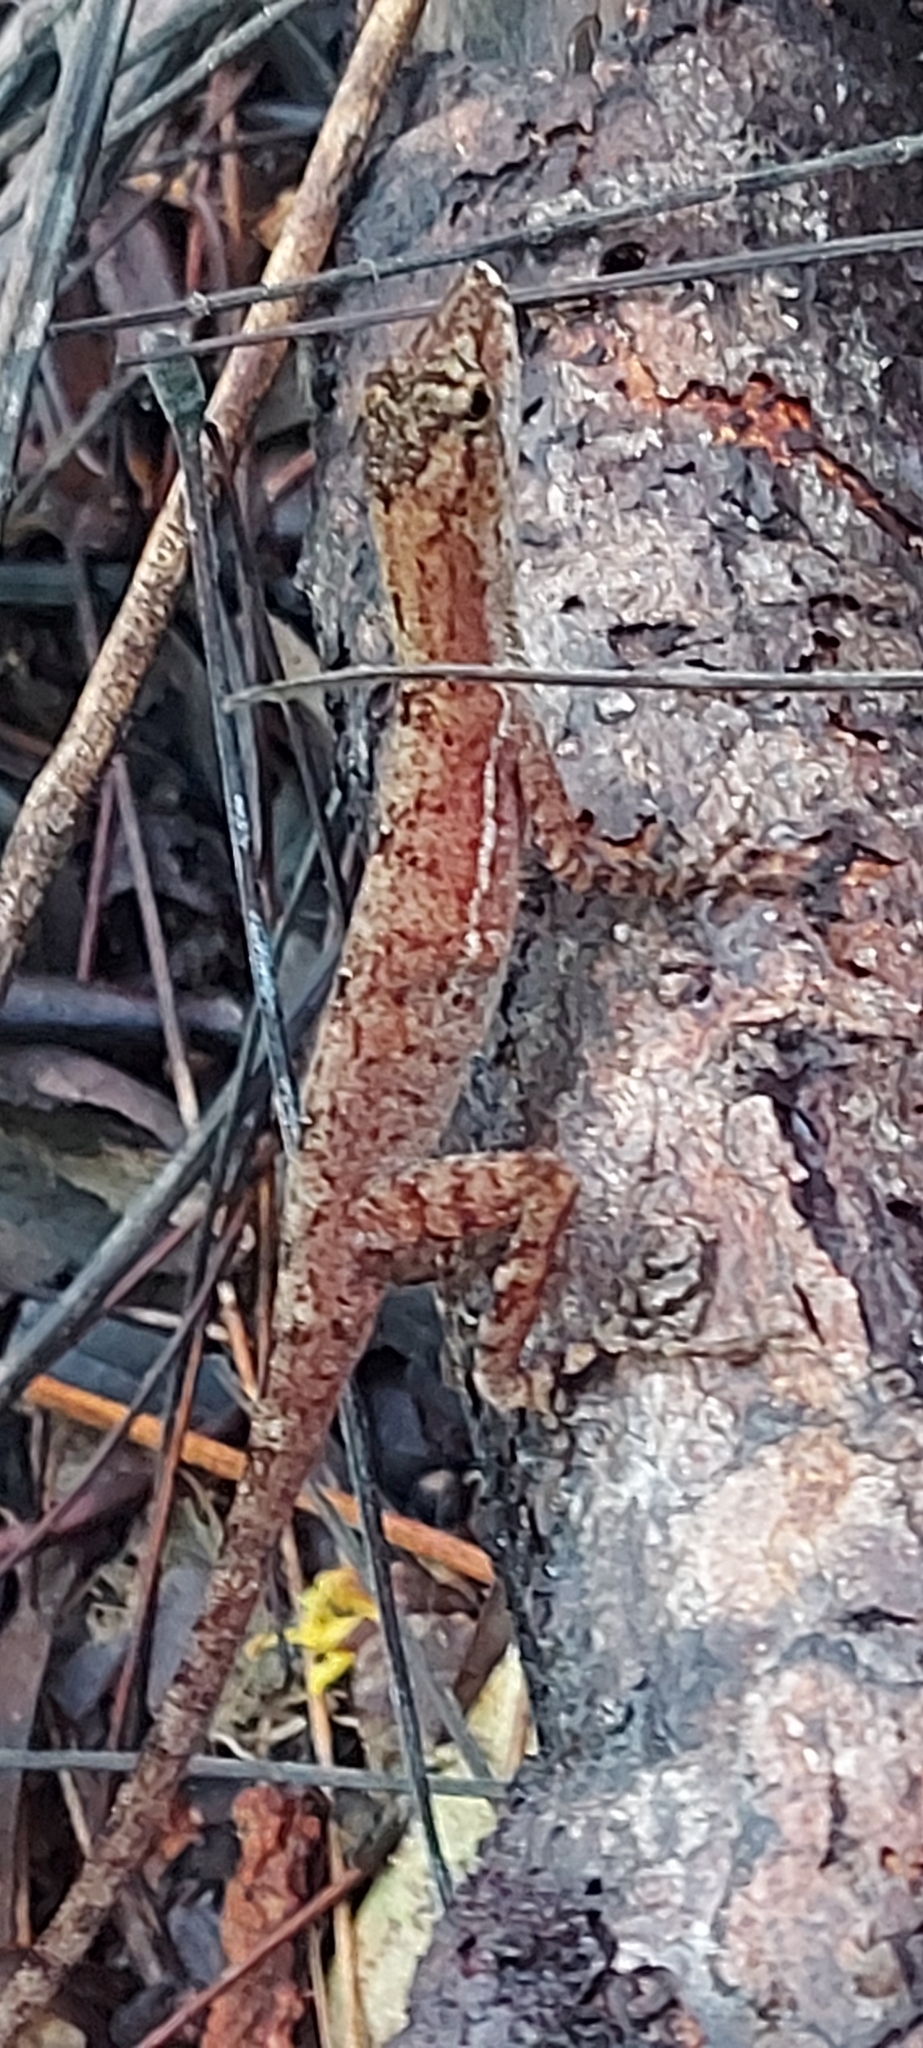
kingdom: Animalia
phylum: Chordata
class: Squamata
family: Dactyloidae
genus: Anolis
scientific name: Anolis osa
